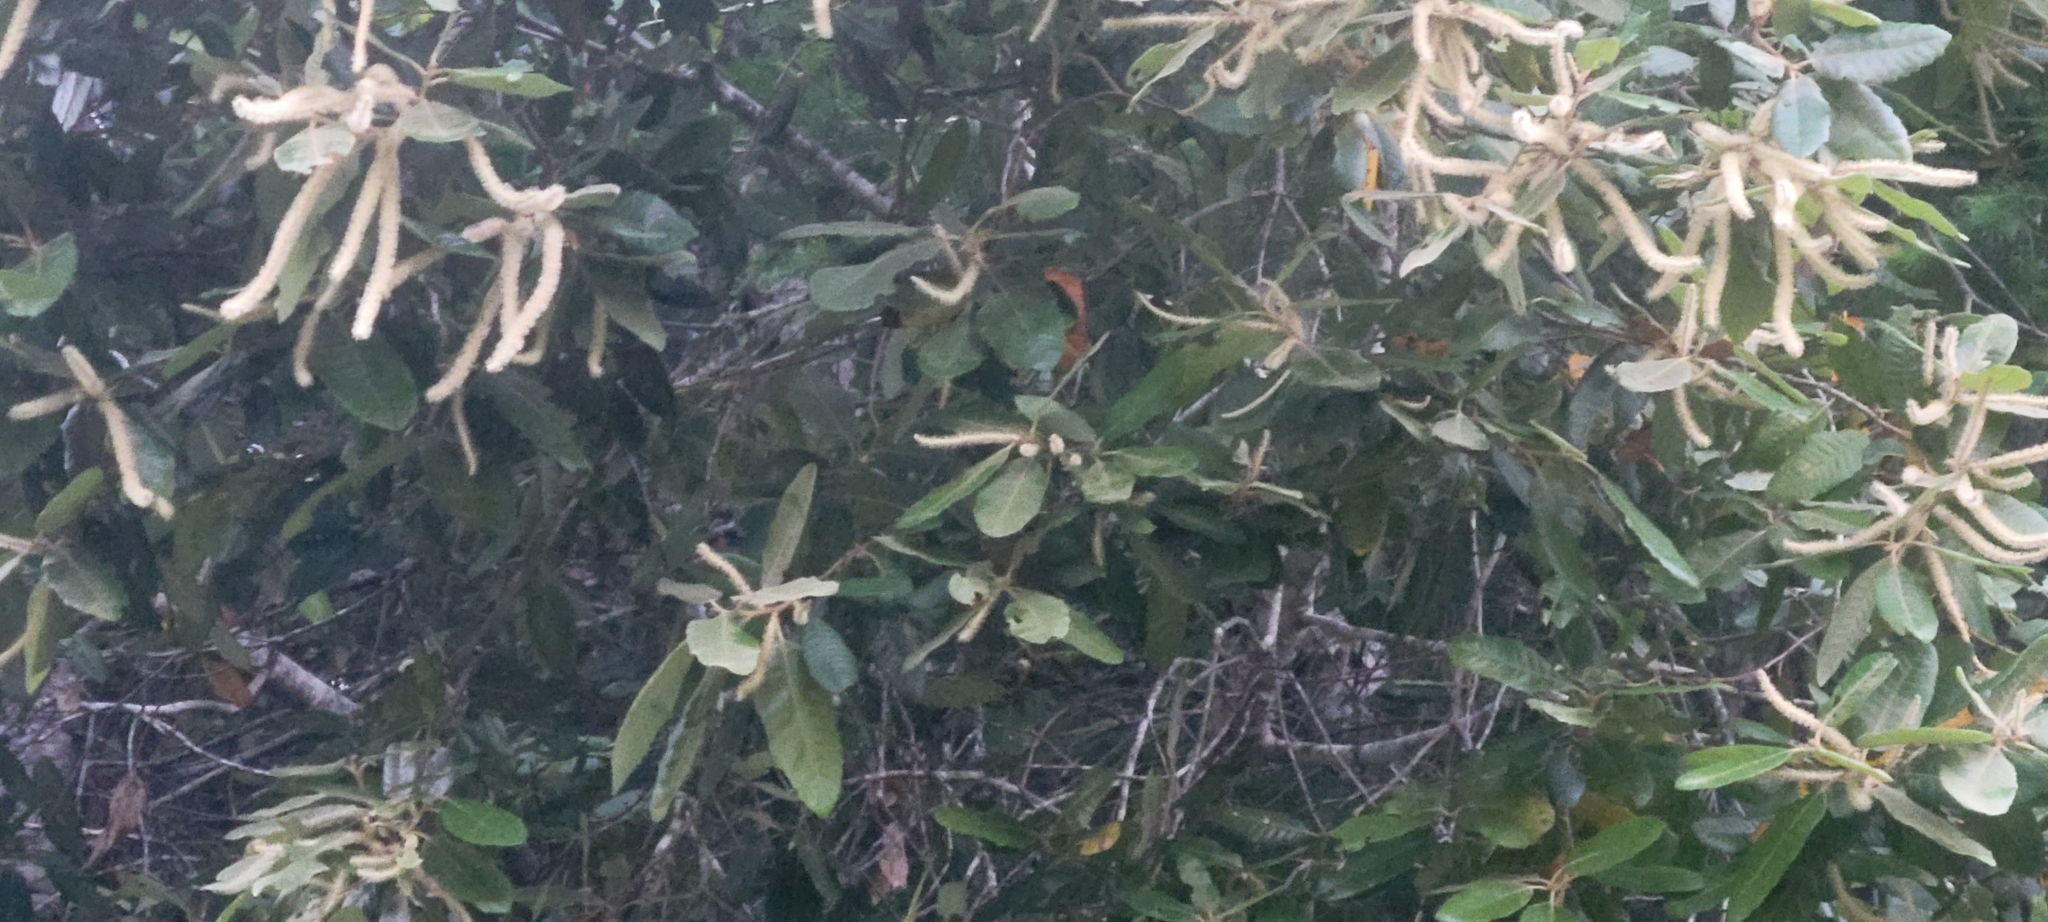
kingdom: Plantae
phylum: Tracheophyta
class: Magnoliopsida
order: Fagales
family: Fagaceae
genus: Notholithocarpus
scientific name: Notholithocarpus densiflorus
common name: Tan bark oak
